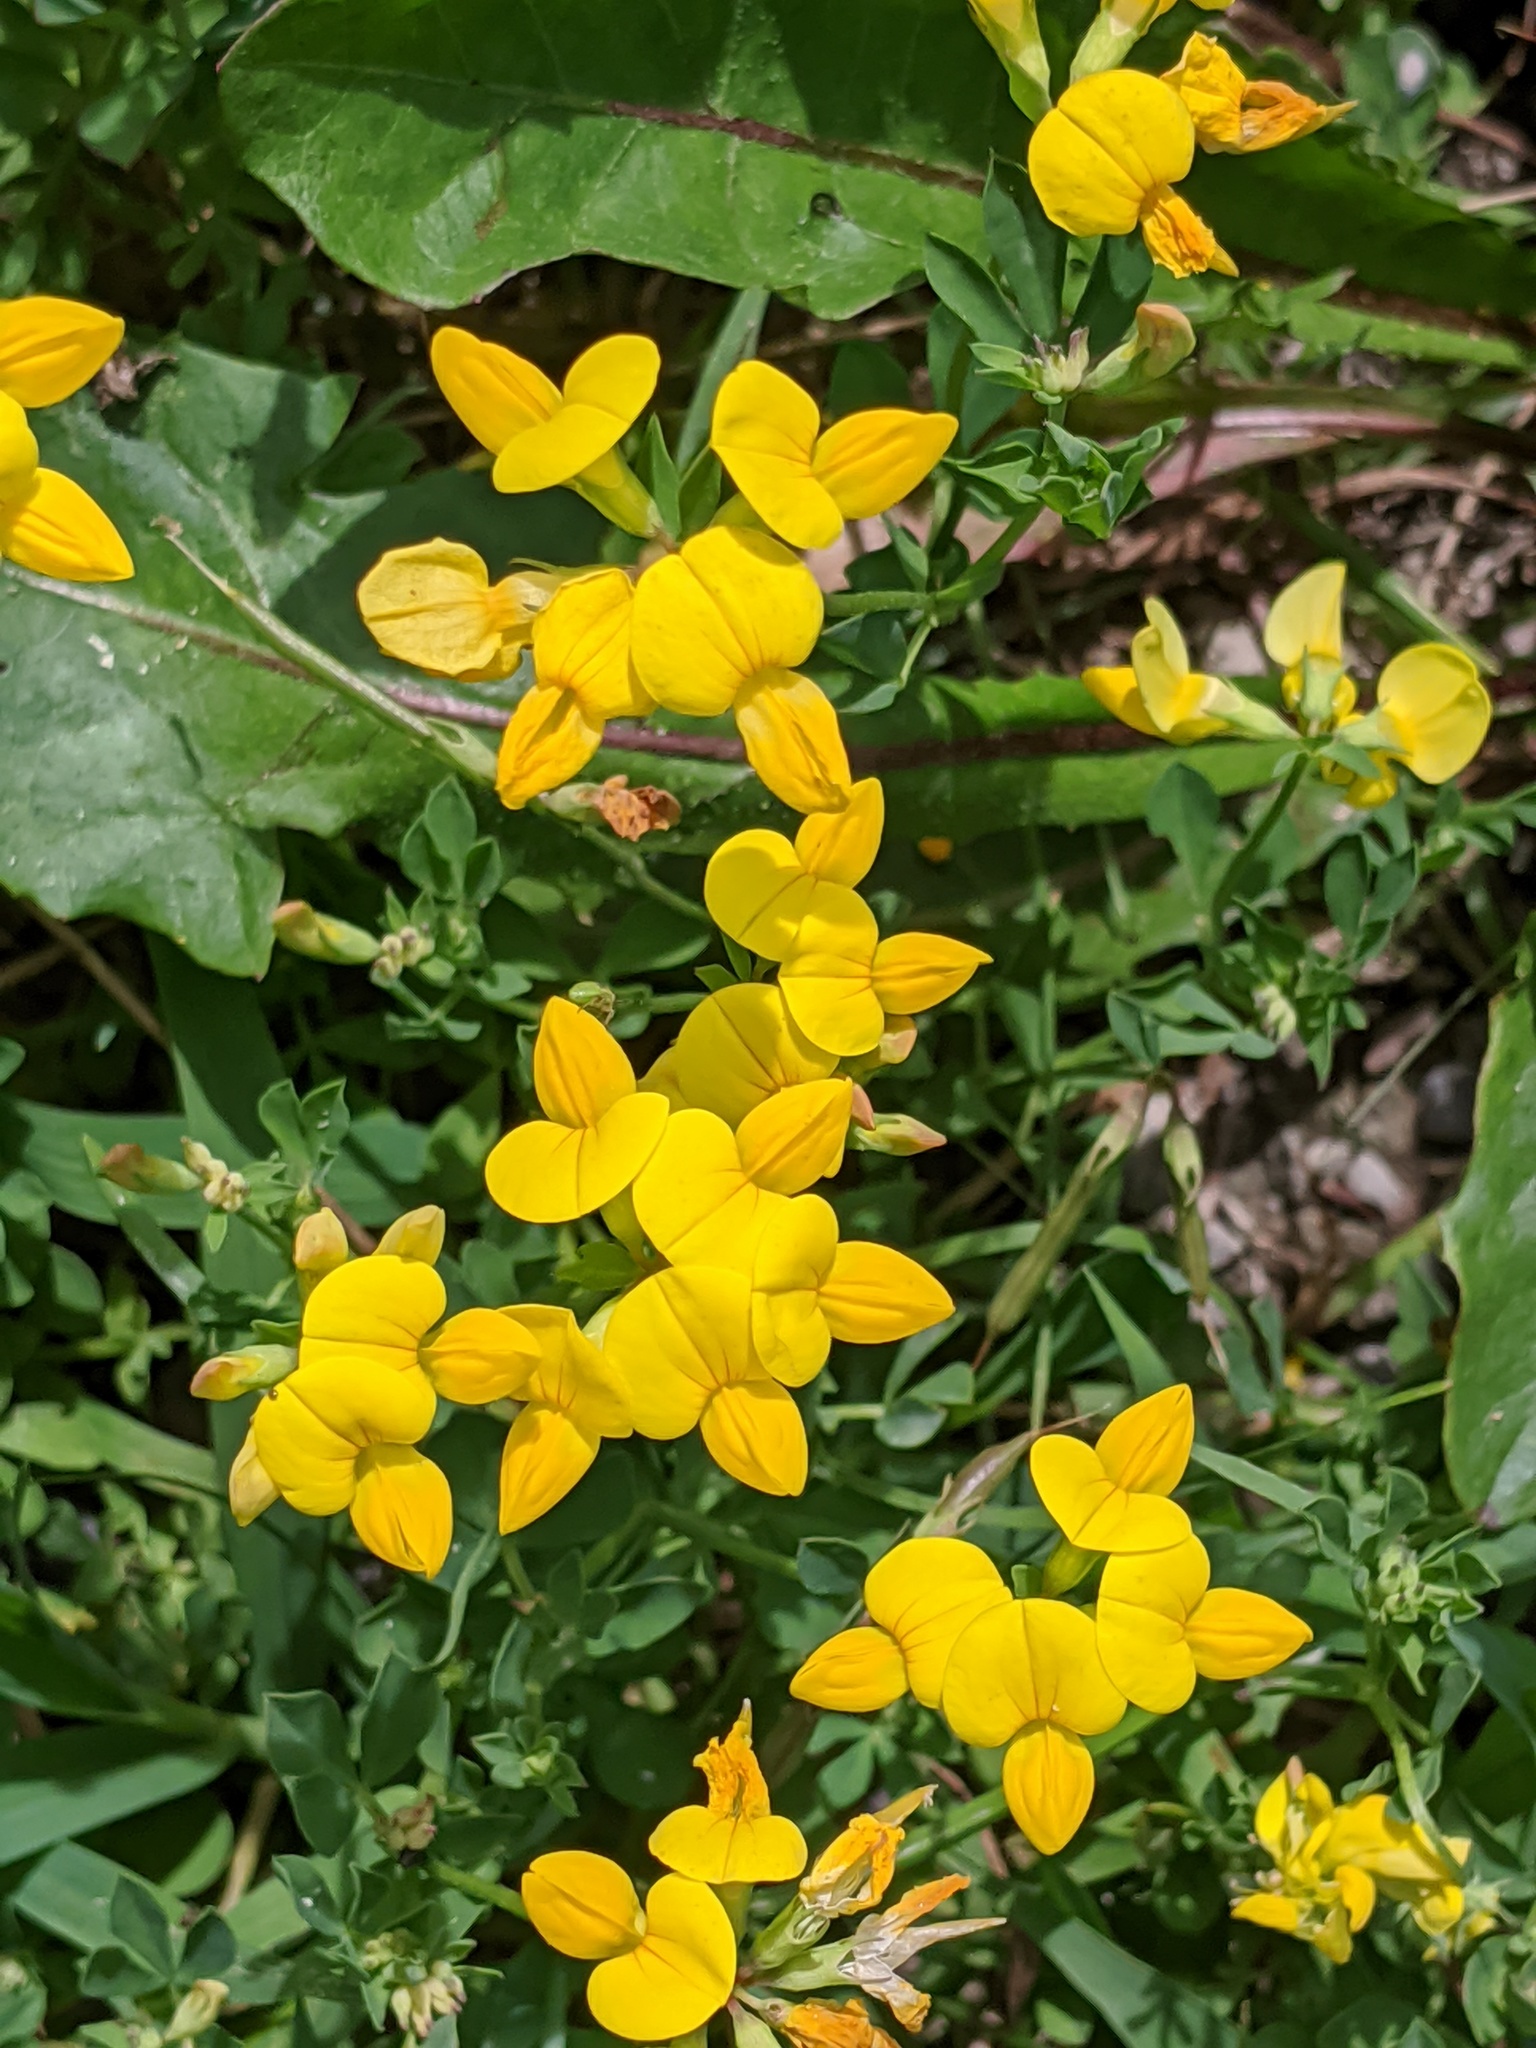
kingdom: Plantae
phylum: Tracheophyta
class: Magnoliopsida
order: Fabales
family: Fabaceae
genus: Lotus
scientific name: Lotus corniculatus
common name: Common bird's-foot-trefoil
